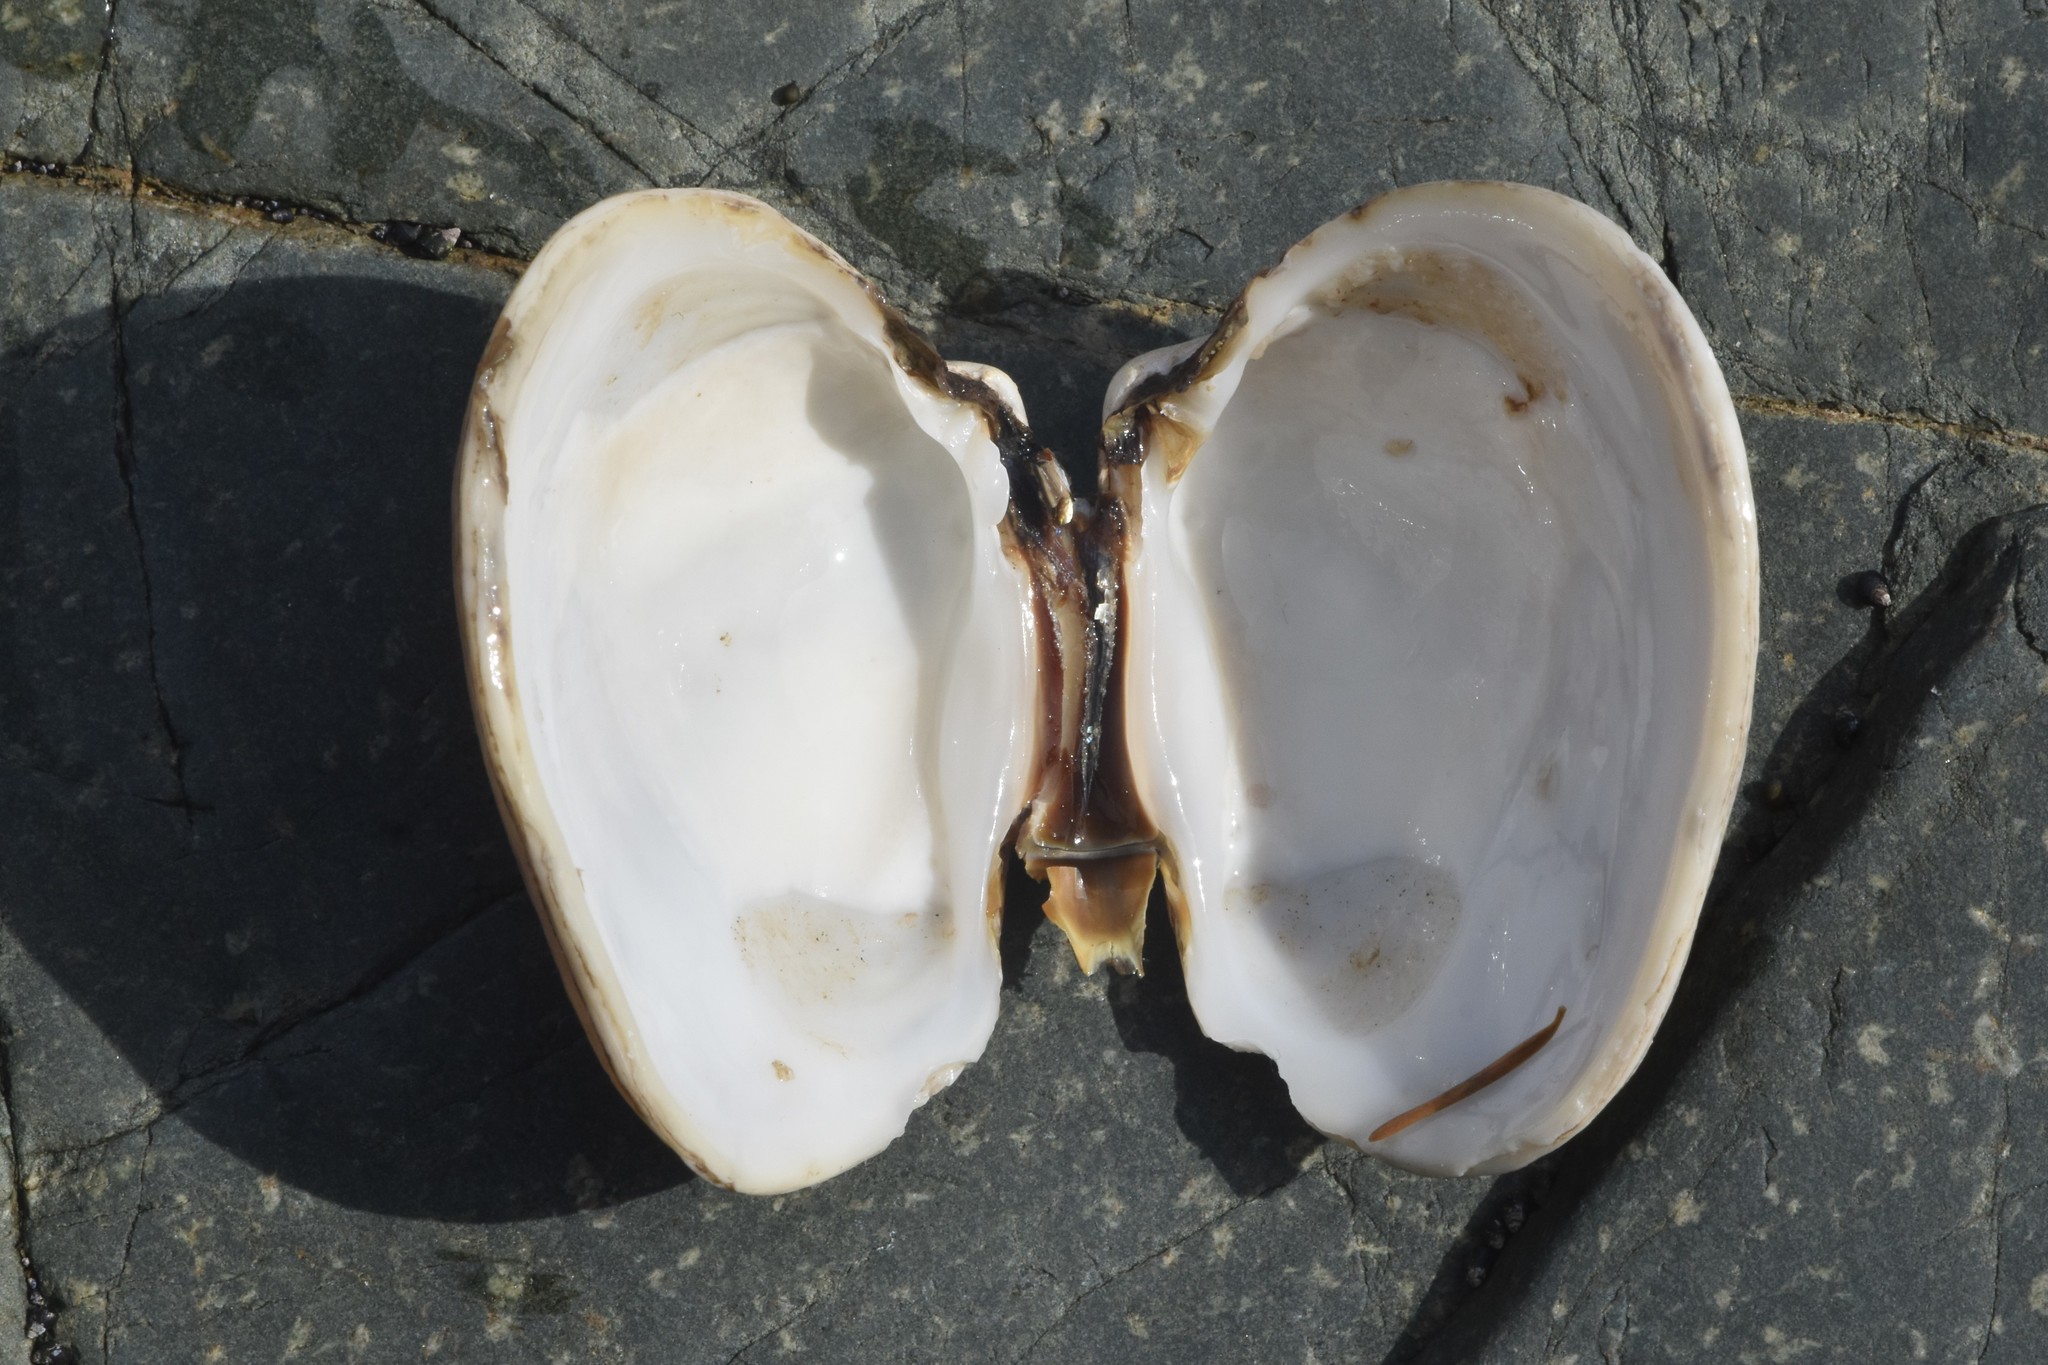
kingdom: Animalia
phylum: Mollusca
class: Bivalvia
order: Venerida
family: Veneridae
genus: Saxidomus
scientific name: Saxidomus gigantea
